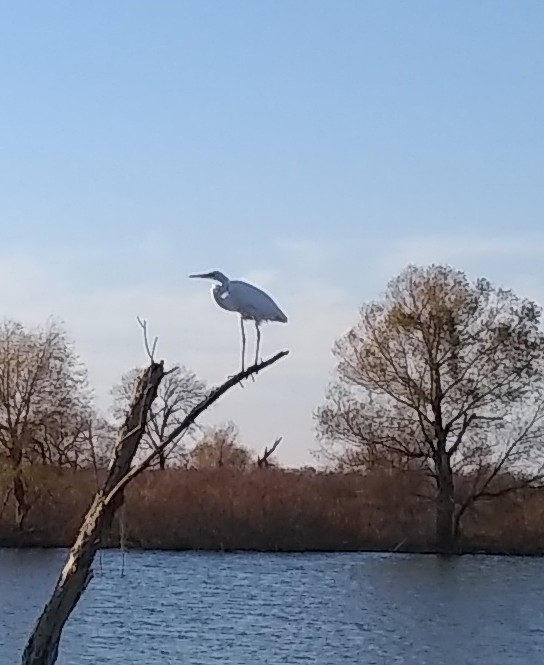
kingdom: Animalia
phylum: Chordata
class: Aves
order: Pelecaniformes
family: Ardeidae
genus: Ardea
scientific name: Ardea alba
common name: Great egret
